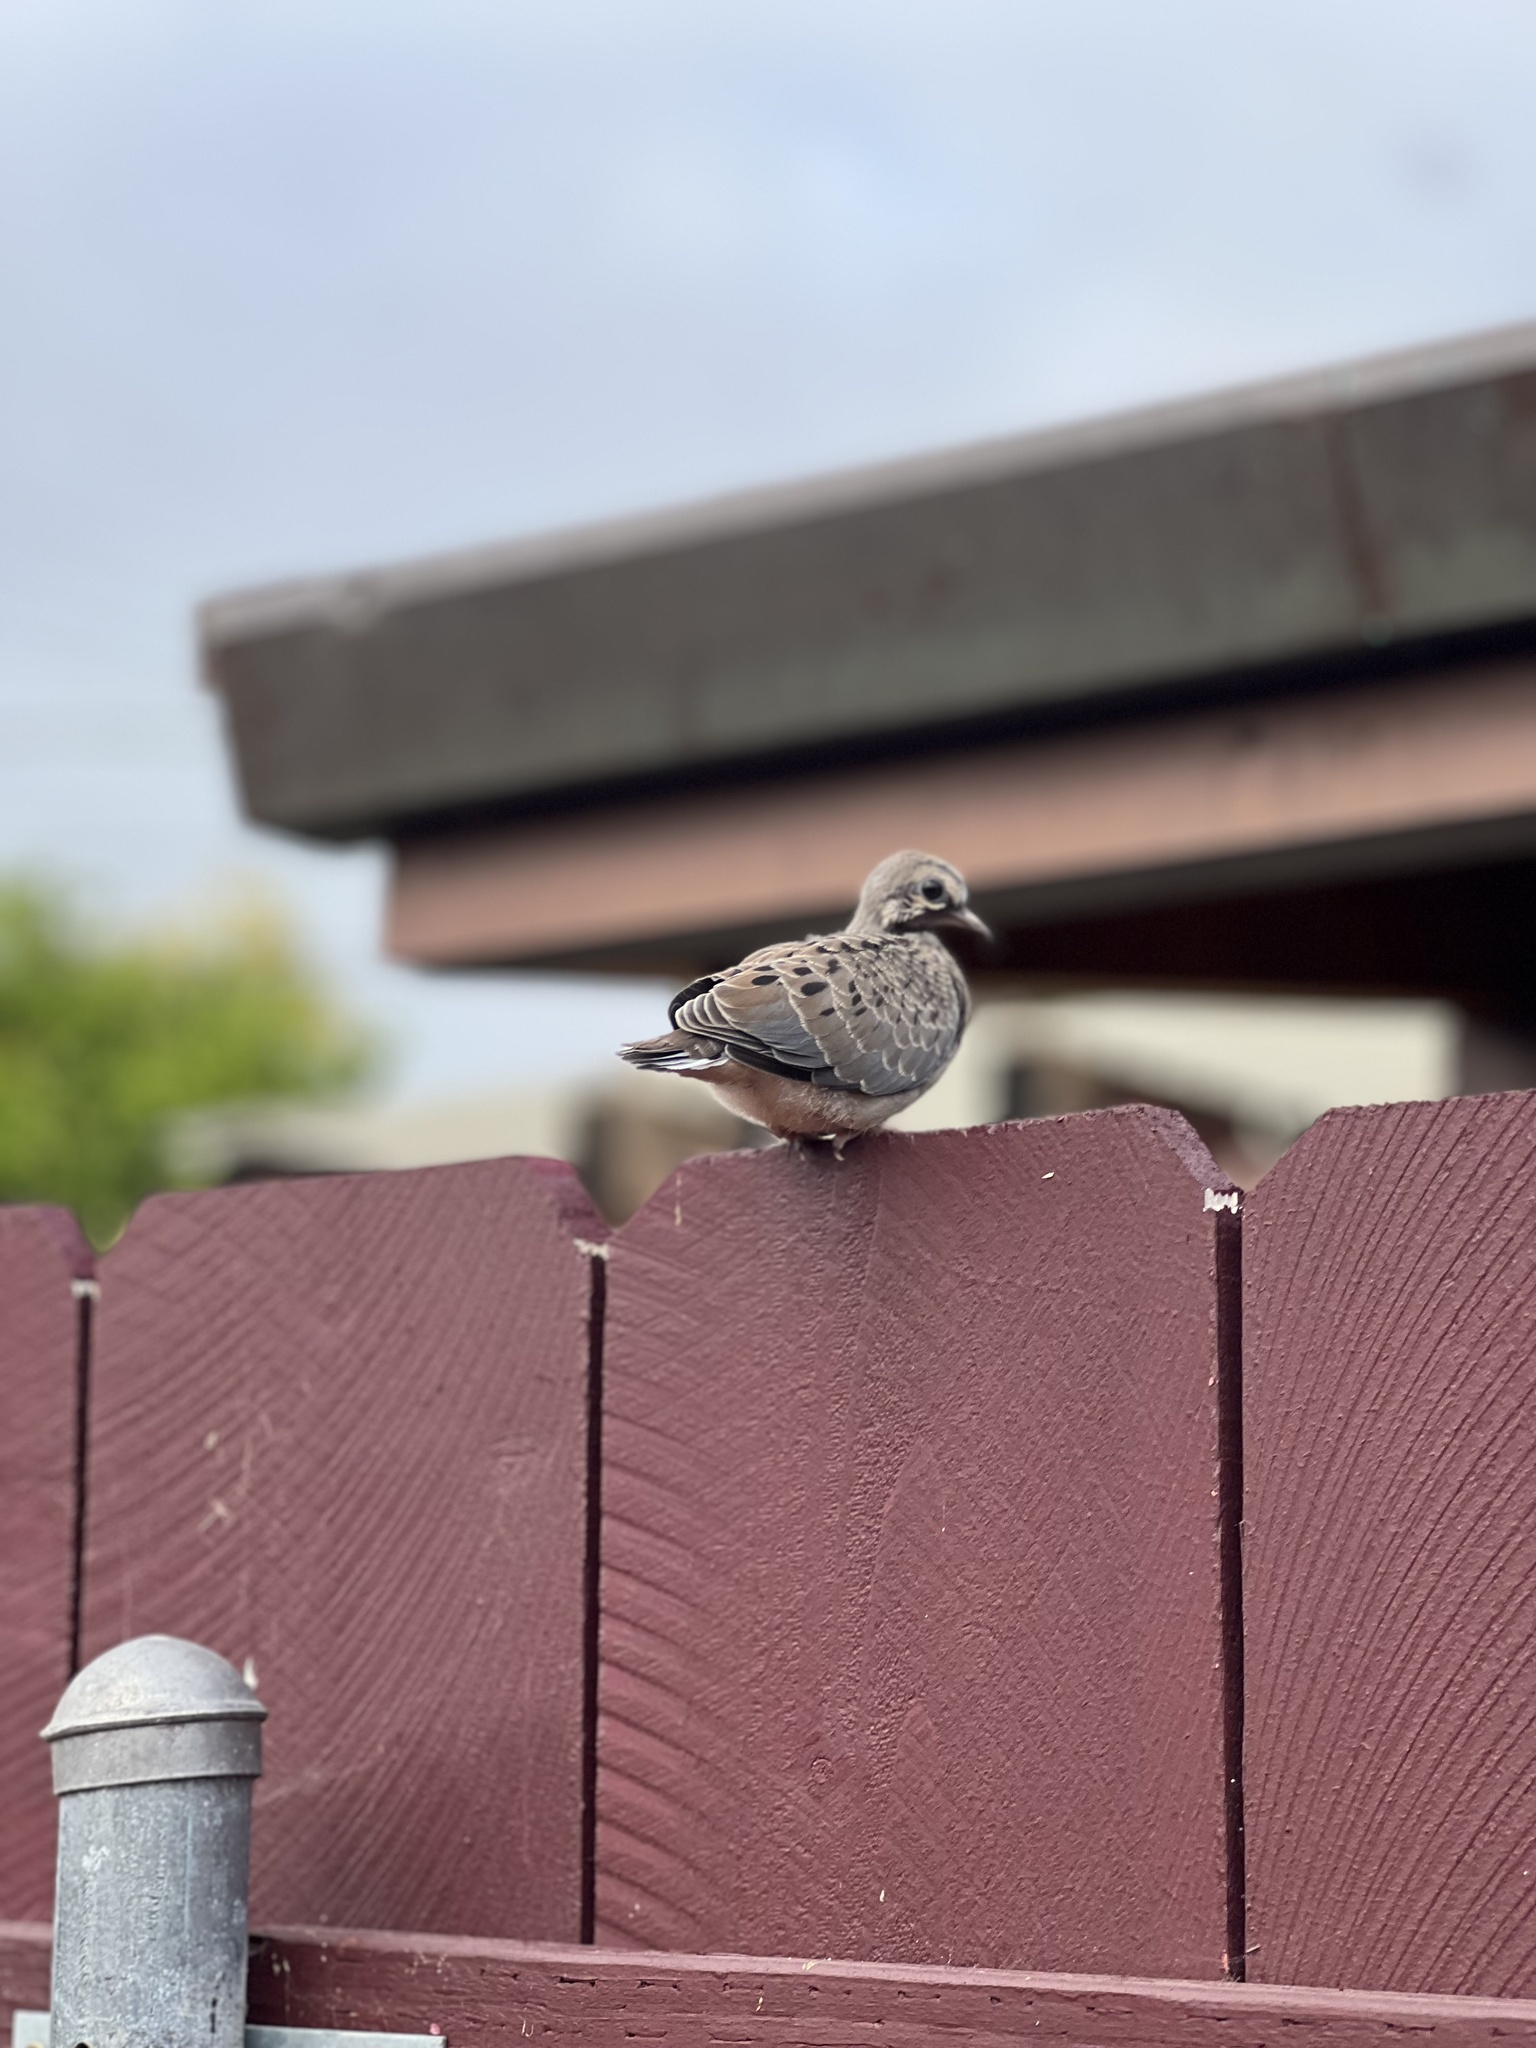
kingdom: Animalia
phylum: Chordata
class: Aves
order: Columbiformes
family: Columbidae
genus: Zenaida
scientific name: Zenaida macroura
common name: Mourning dove
